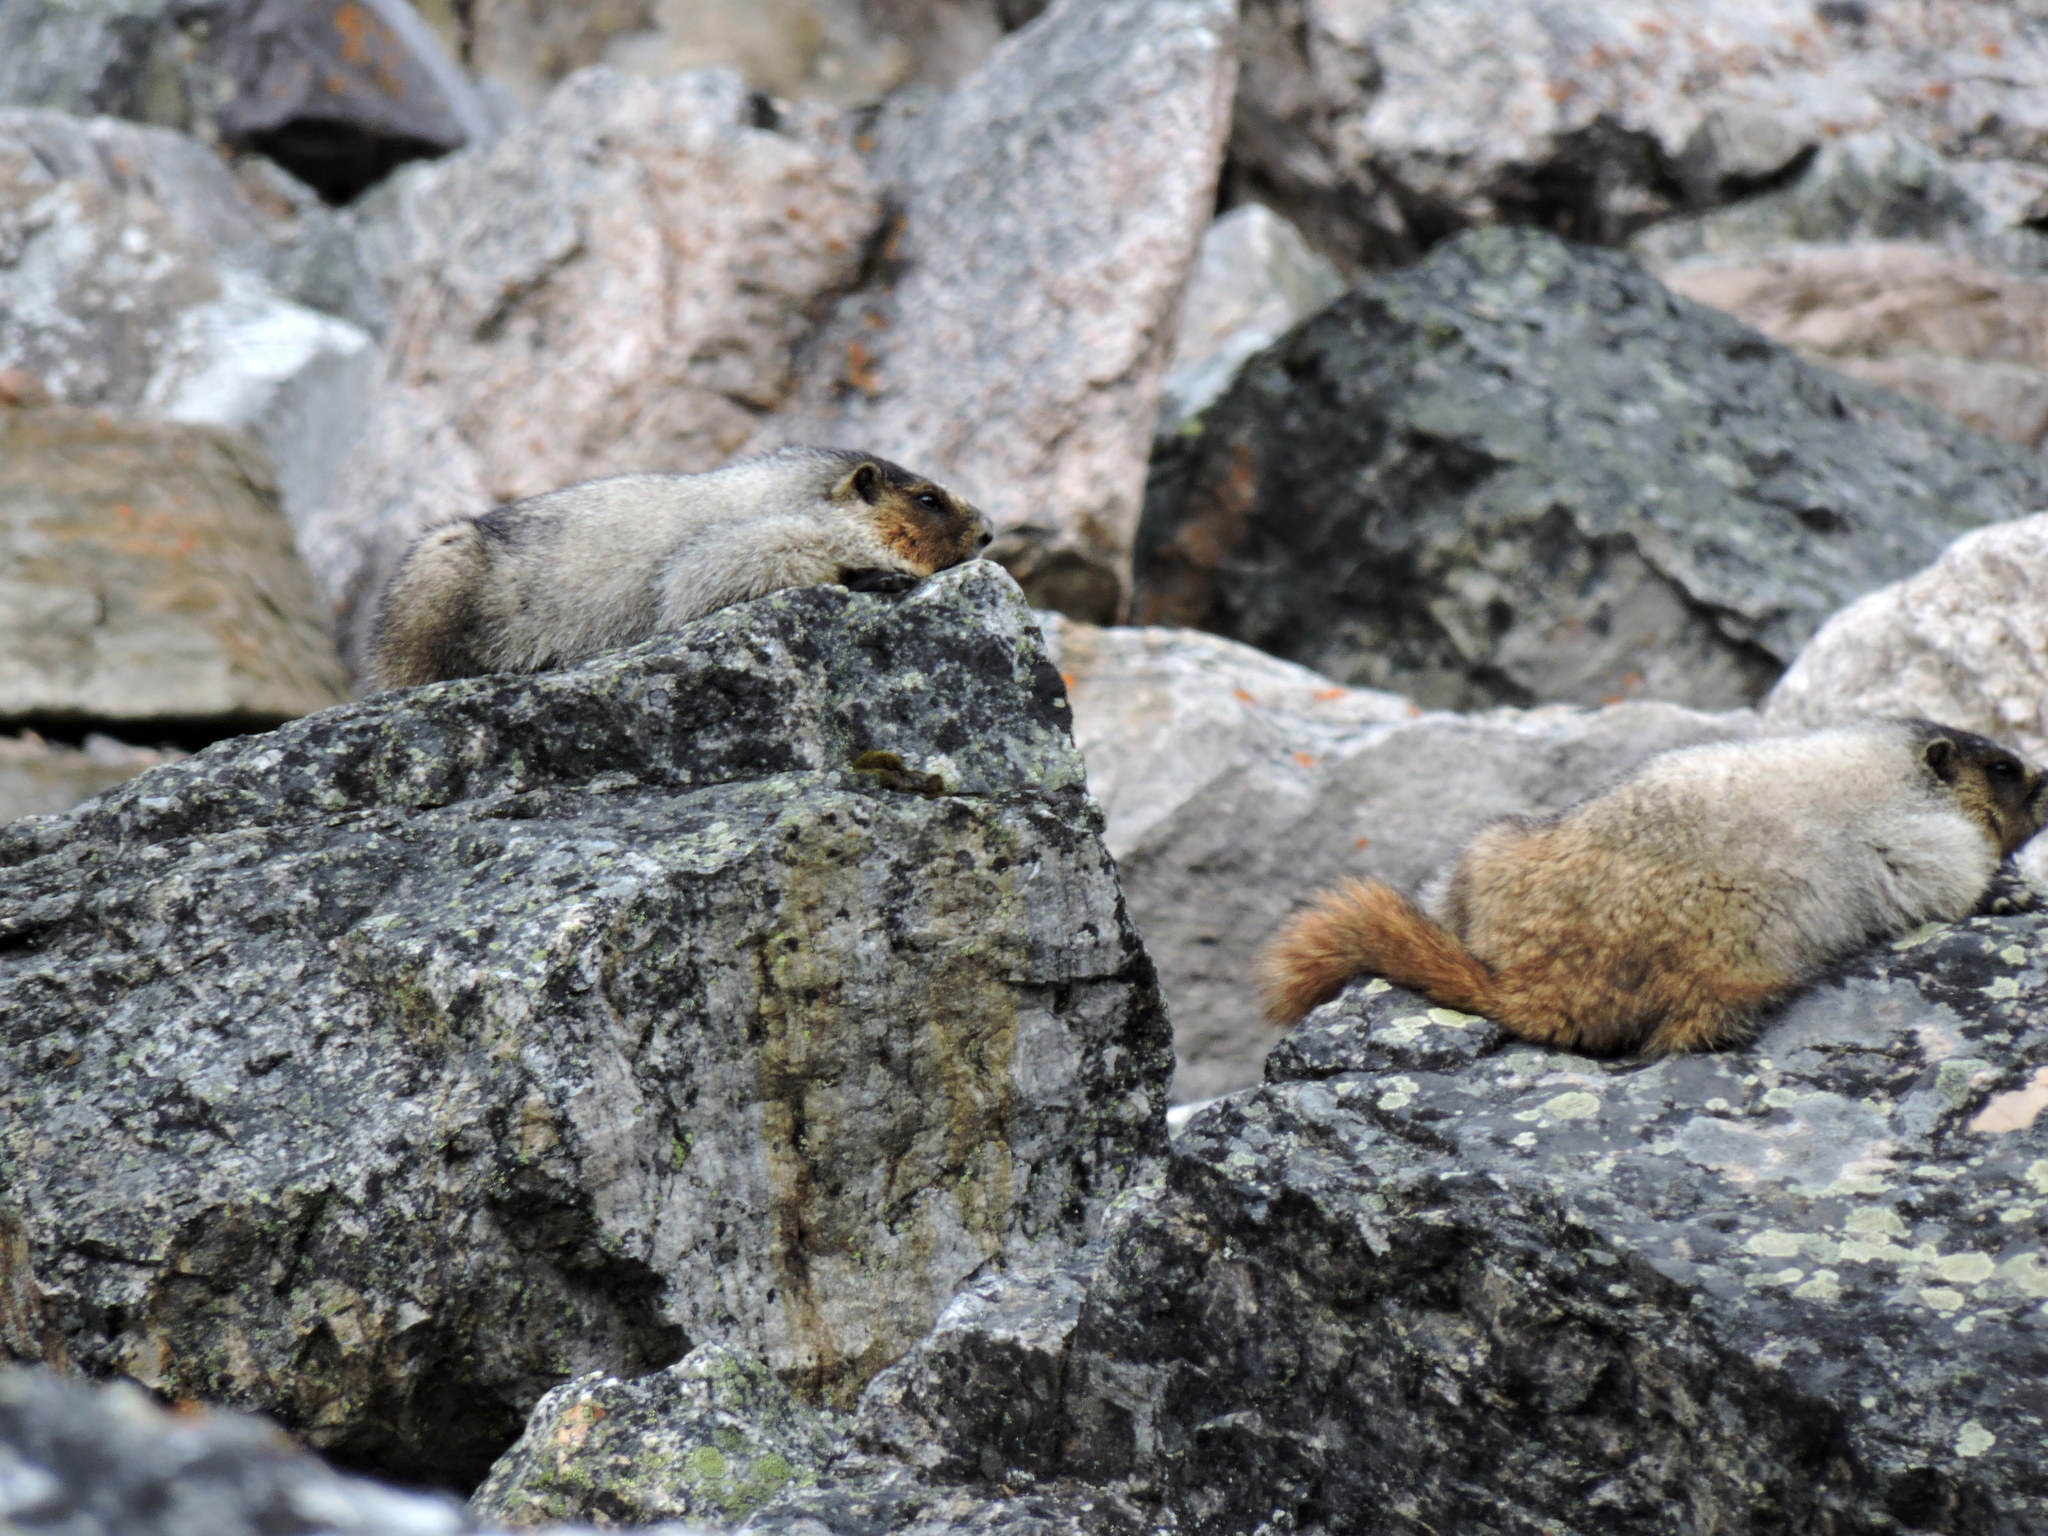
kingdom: Animalia
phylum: Chordata
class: Mammalia
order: Rodentia
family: Sciuridae
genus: Marmota
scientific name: Marmota caligata
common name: Hoary marmot
